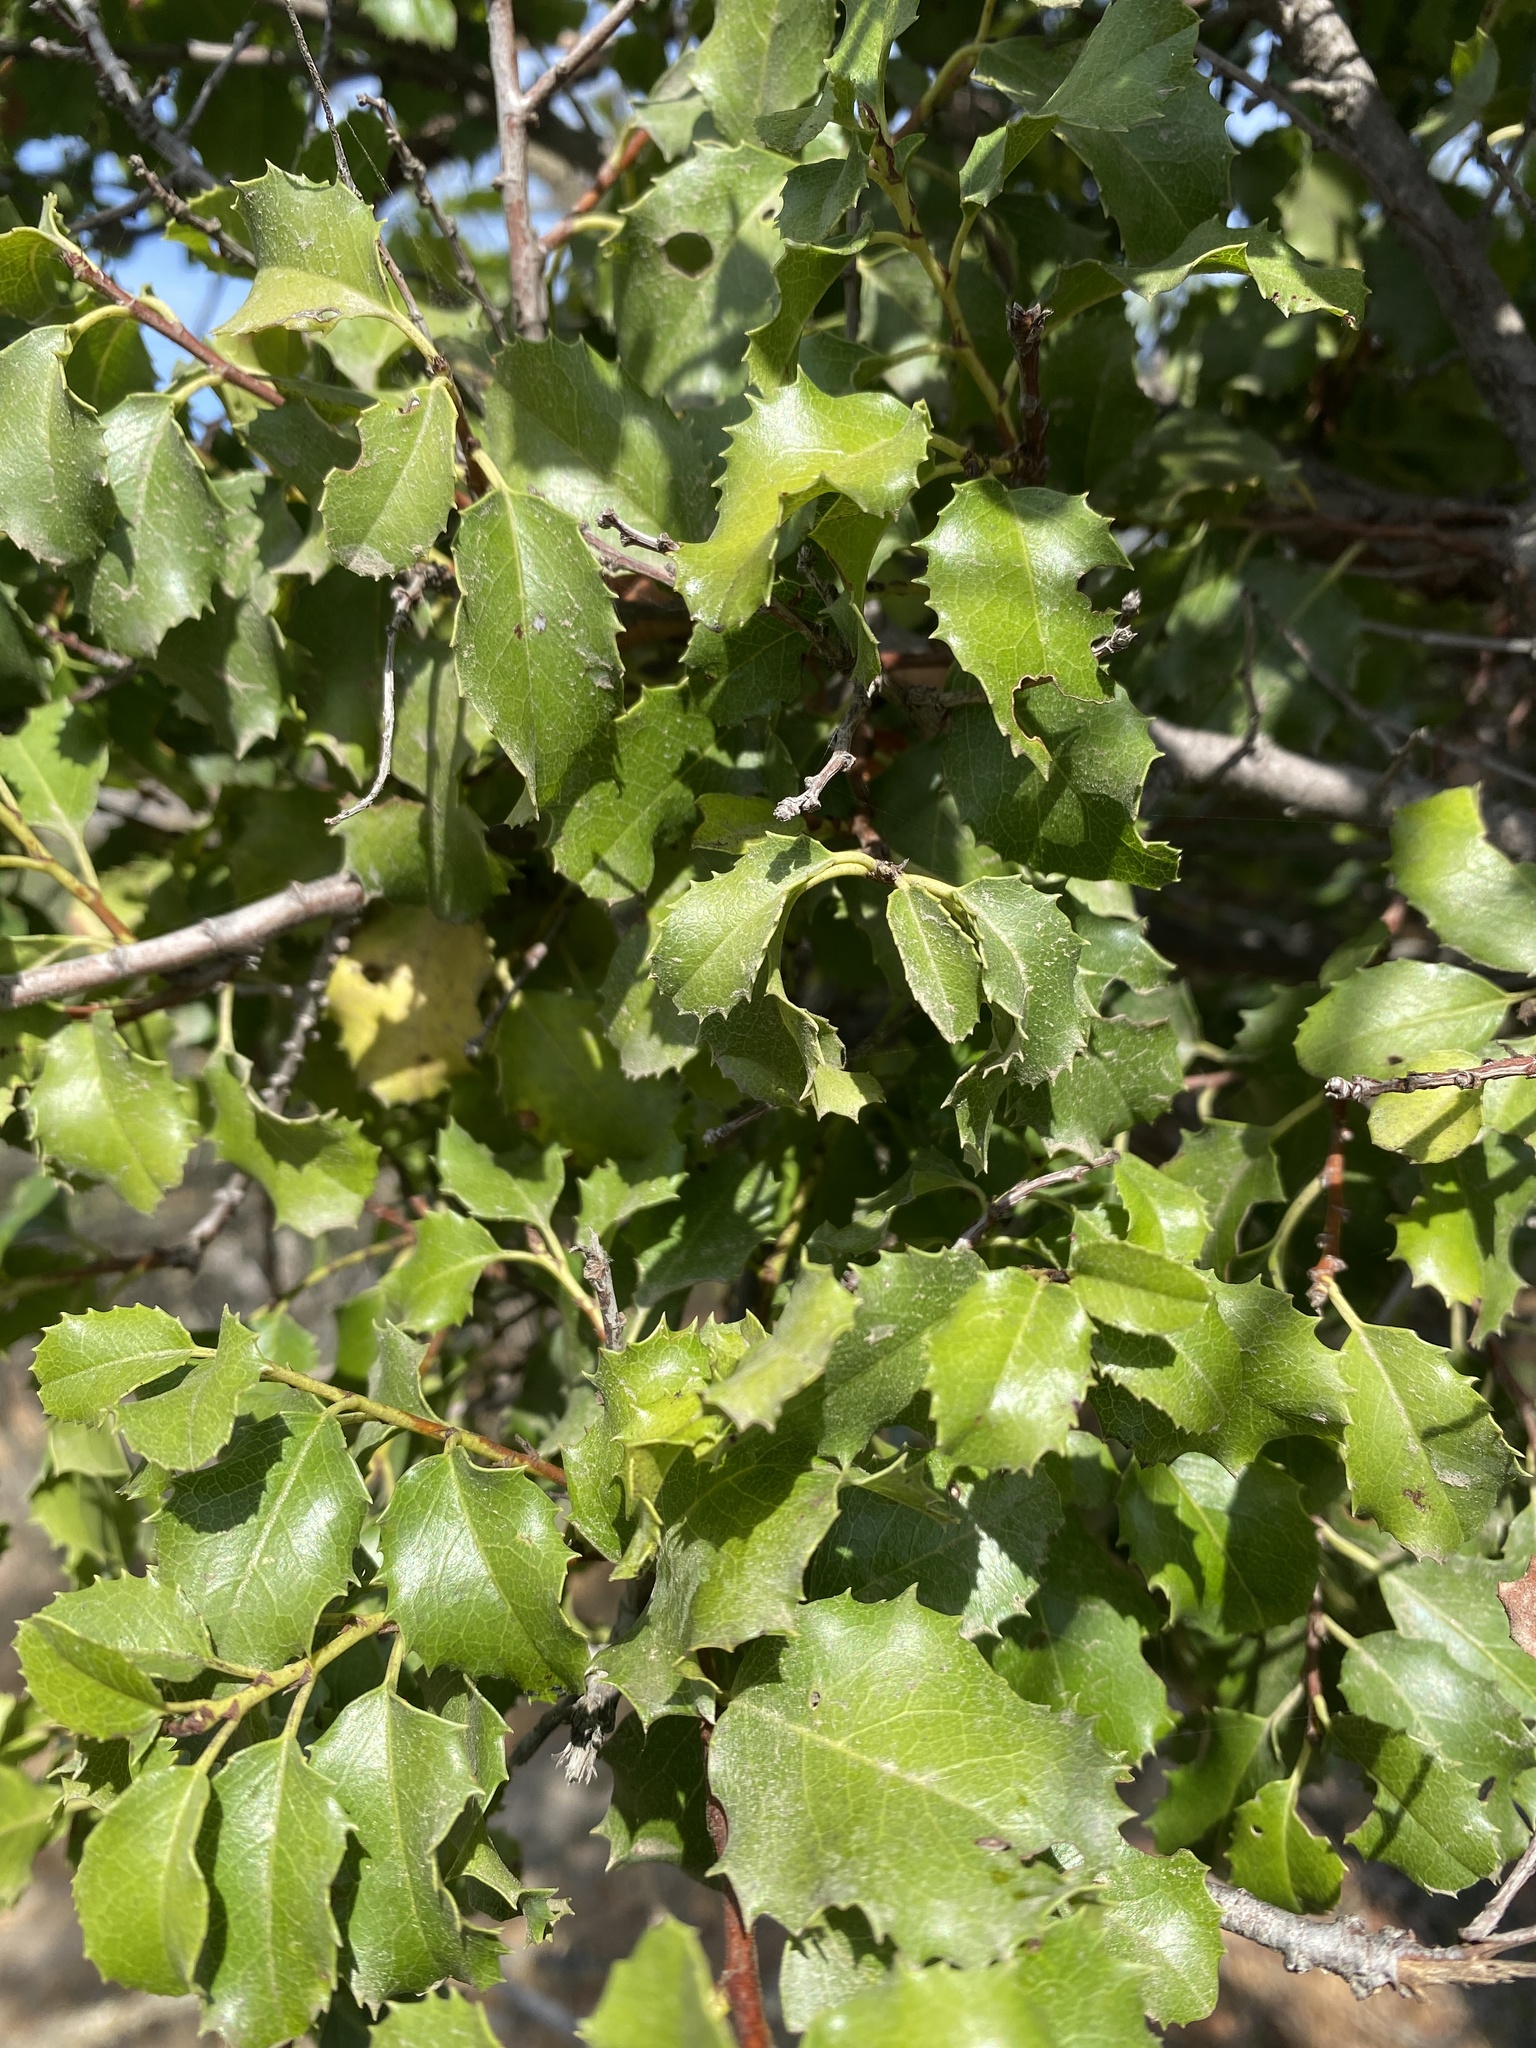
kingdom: Plantae
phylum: Tracheophyta
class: Magnoliopsida
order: Rosales
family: Rosaceae
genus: Prunus
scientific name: Prunus ilicifolia
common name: Hollyleaf cherry
